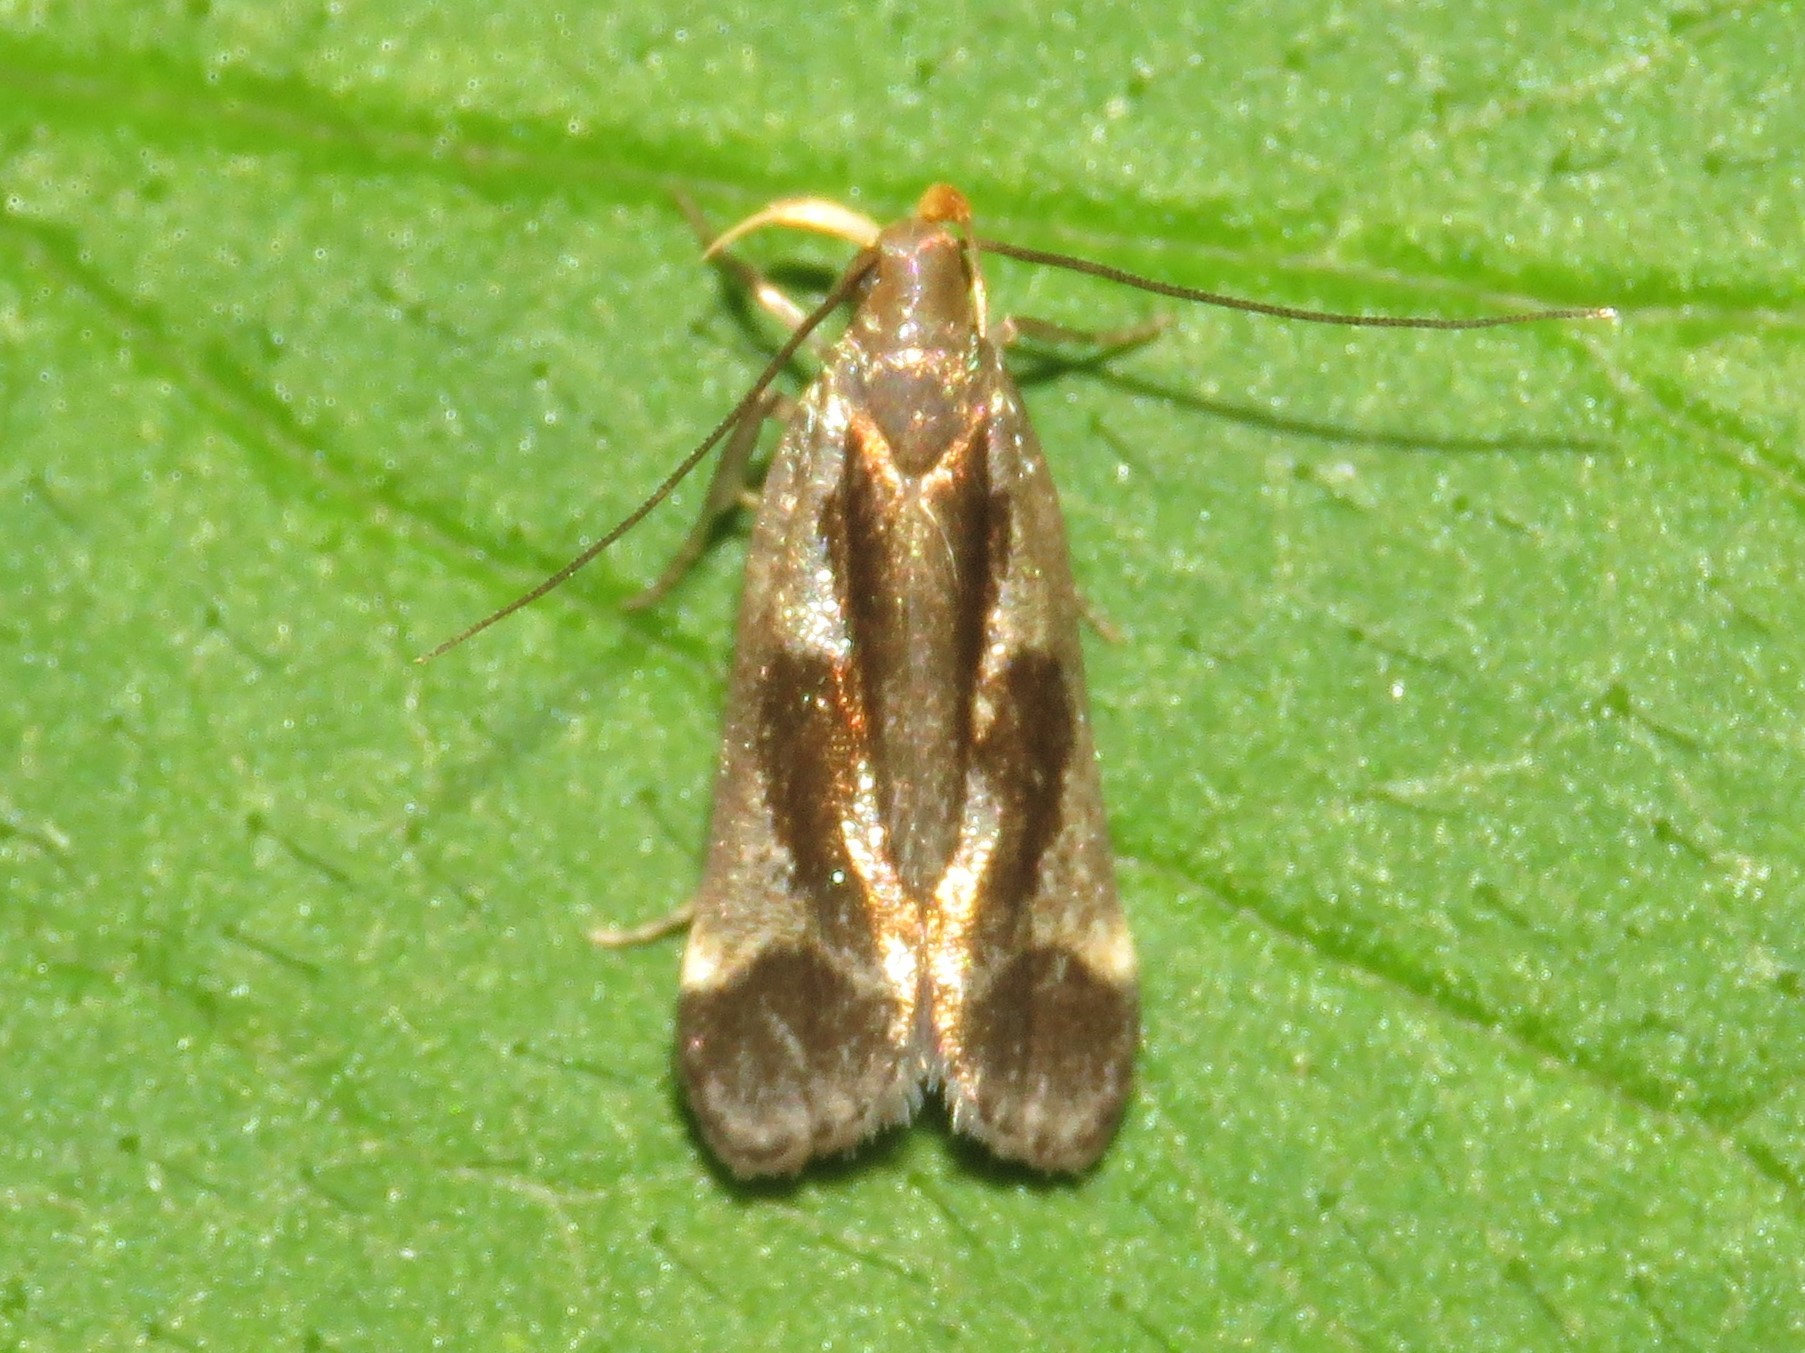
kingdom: Animalia
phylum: Arthropoda
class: Insecta
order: Lepidoptera
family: Gelechiidae
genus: Dichomeris
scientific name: Dichomeris ochripalpella
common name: Shining dichomeris moth
